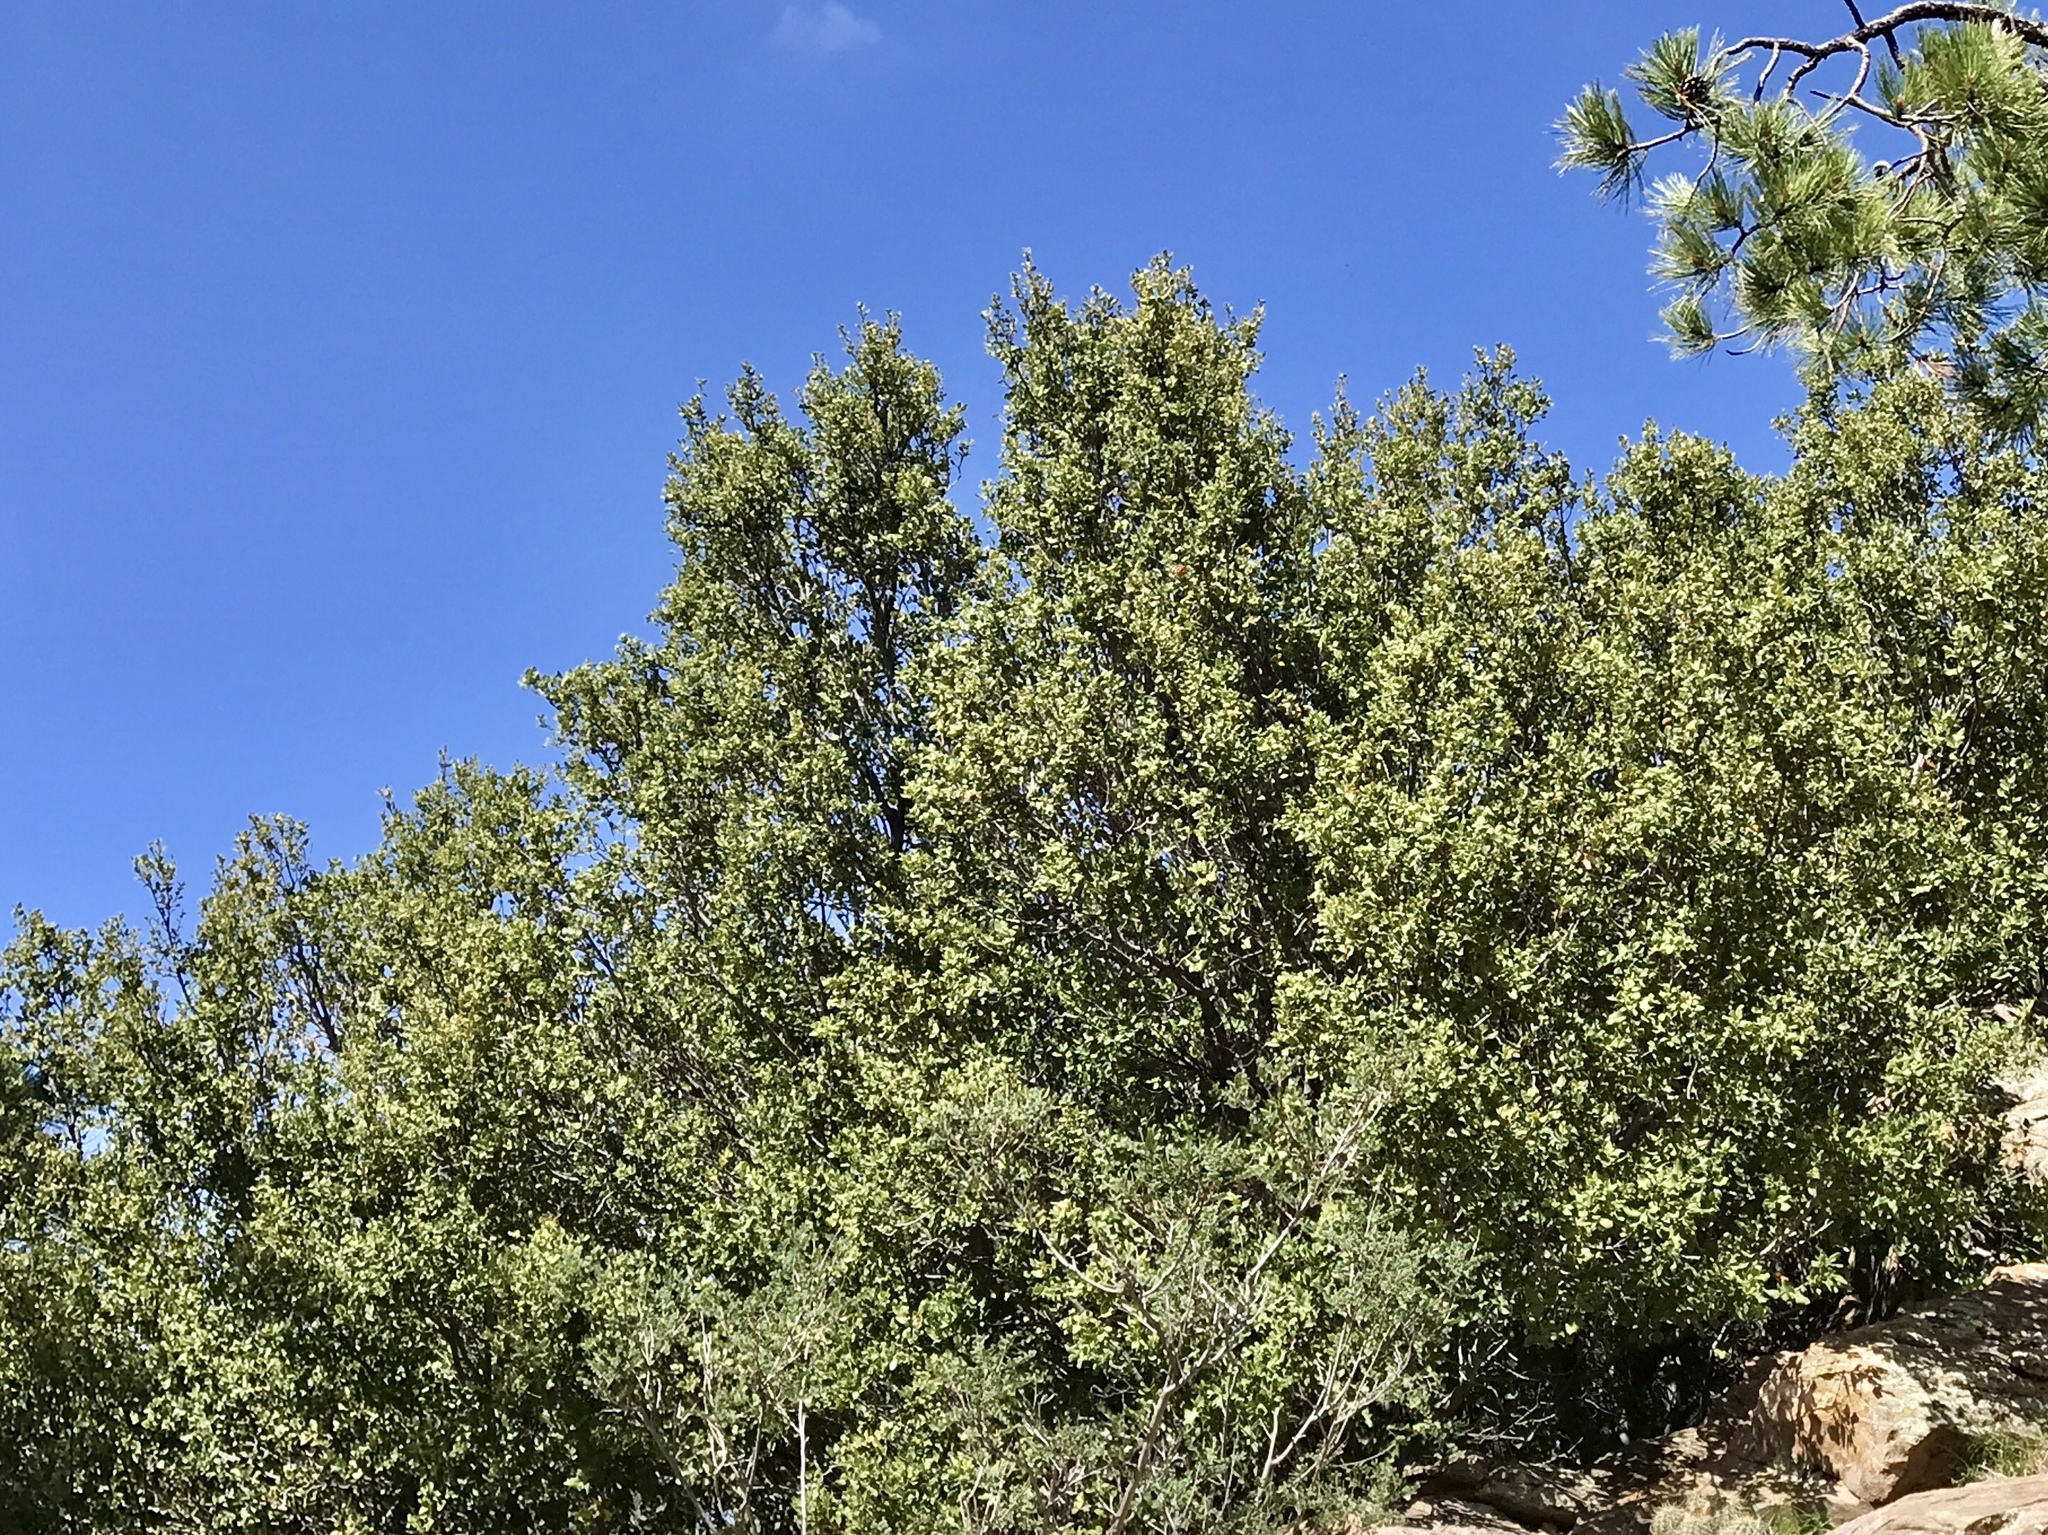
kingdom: Plantae
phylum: Tracheophyta
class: Magnoliopsida
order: Fagales
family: Fagaceae
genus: Quercus
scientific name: Quercus turbinella
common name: Sonoran scrub oak
